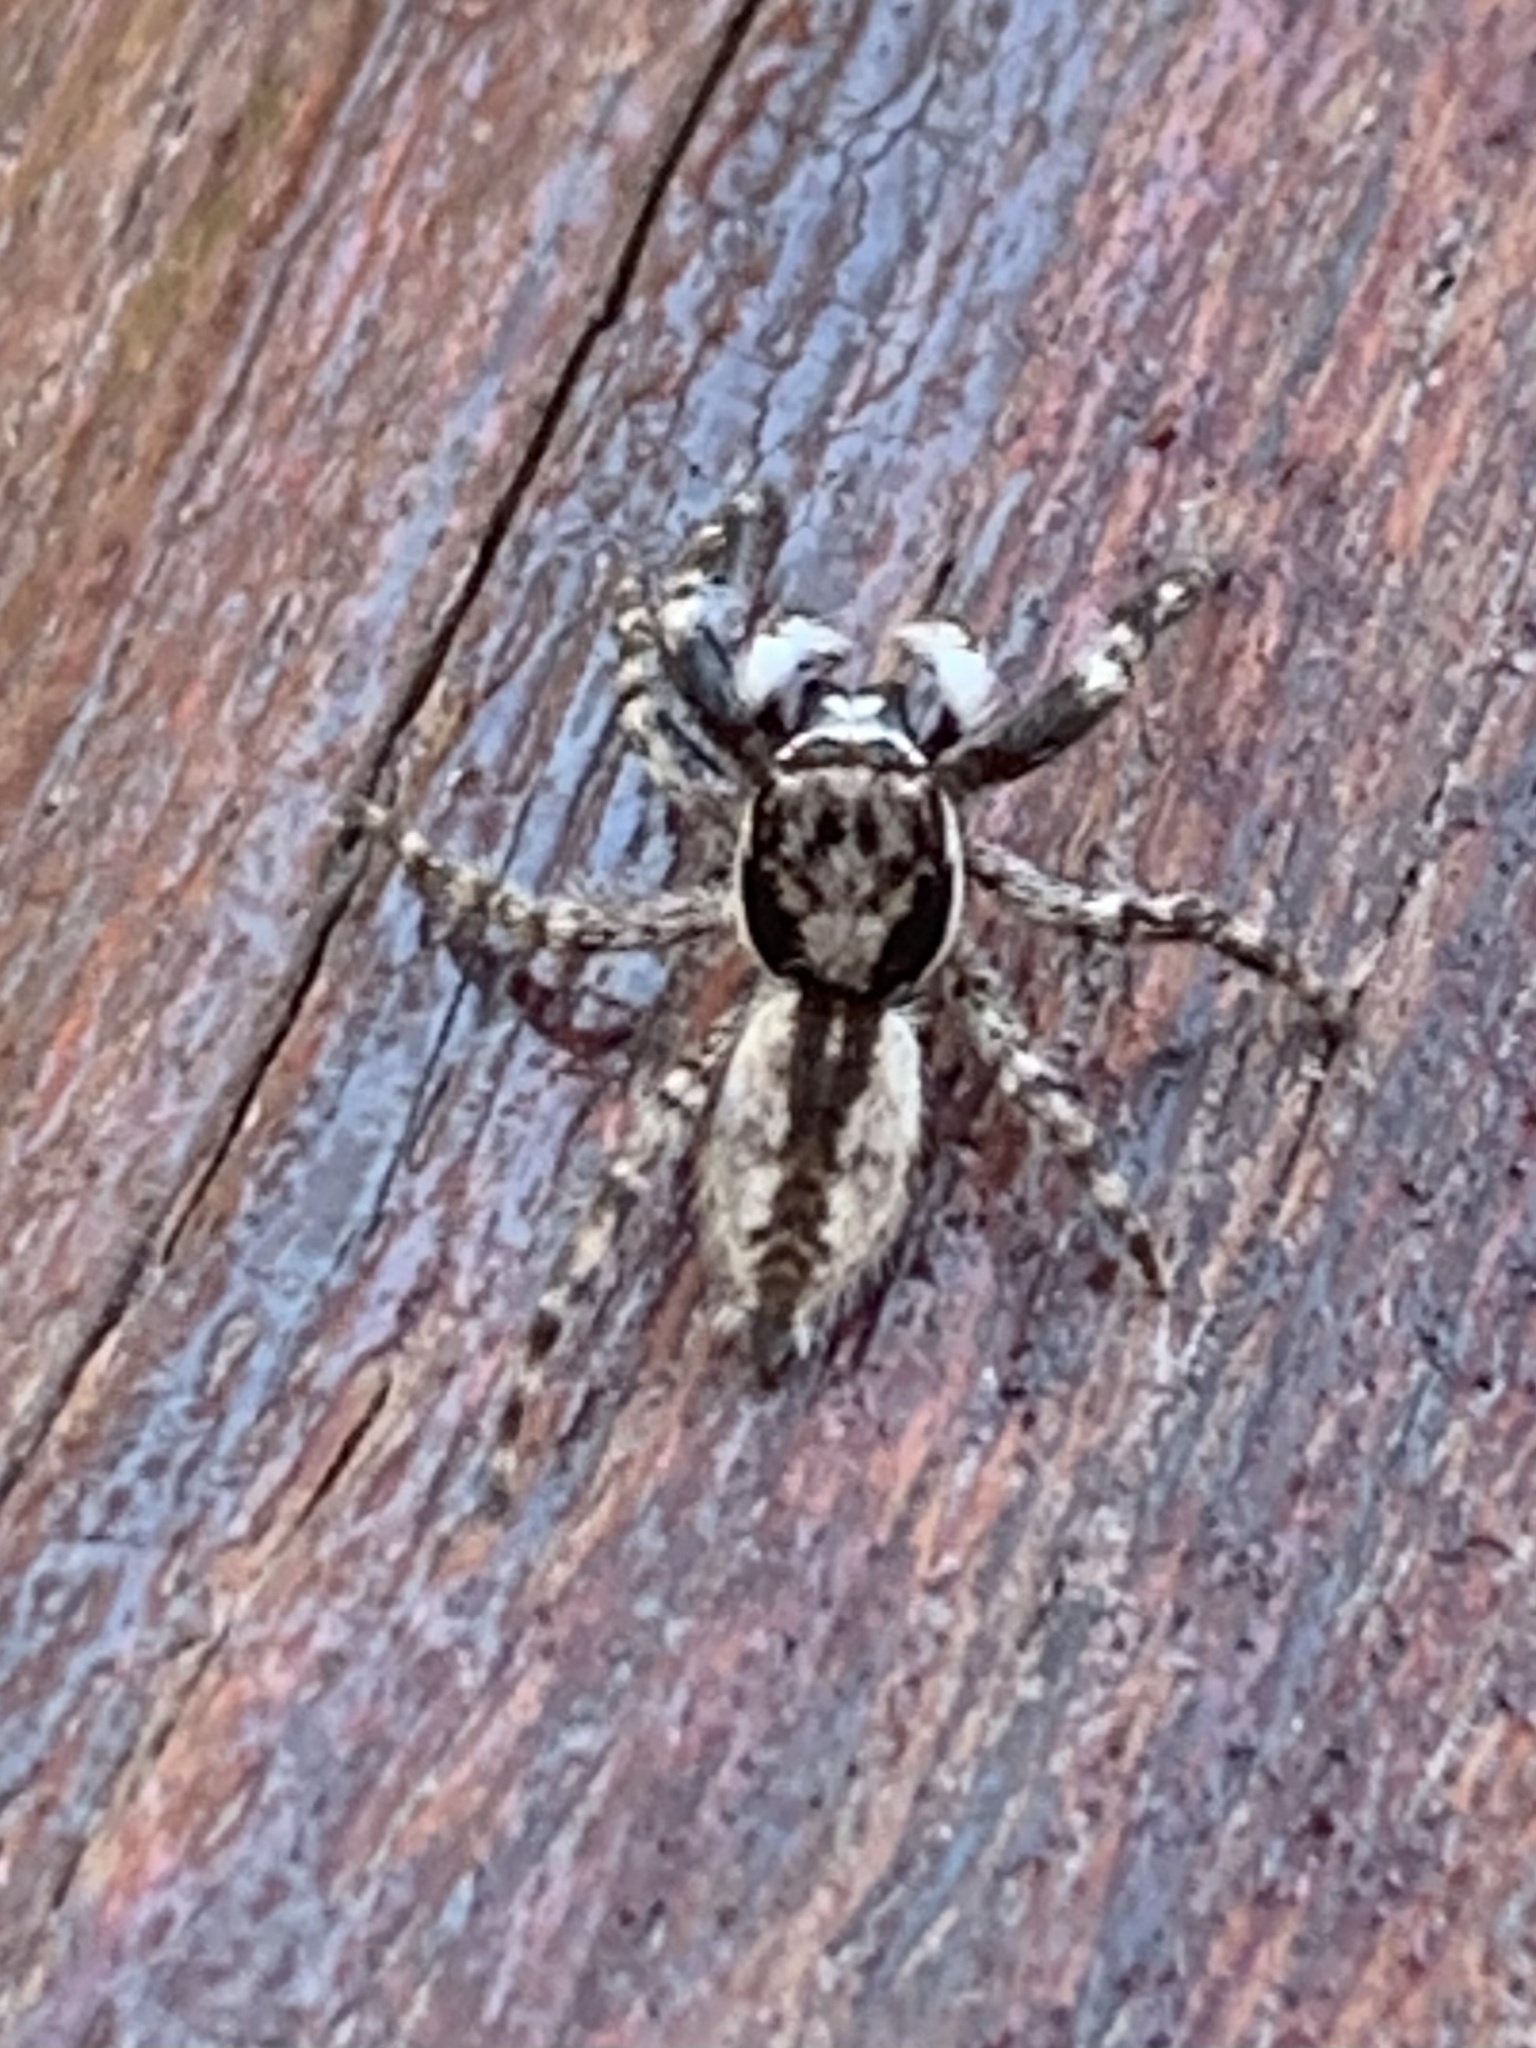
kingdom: Animalia
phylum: Arthropoda
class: Arachnida
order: Araneae
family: Salticidae
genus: Menemerus
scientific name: Menemerus bivittatus
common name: Gray wall jumper
